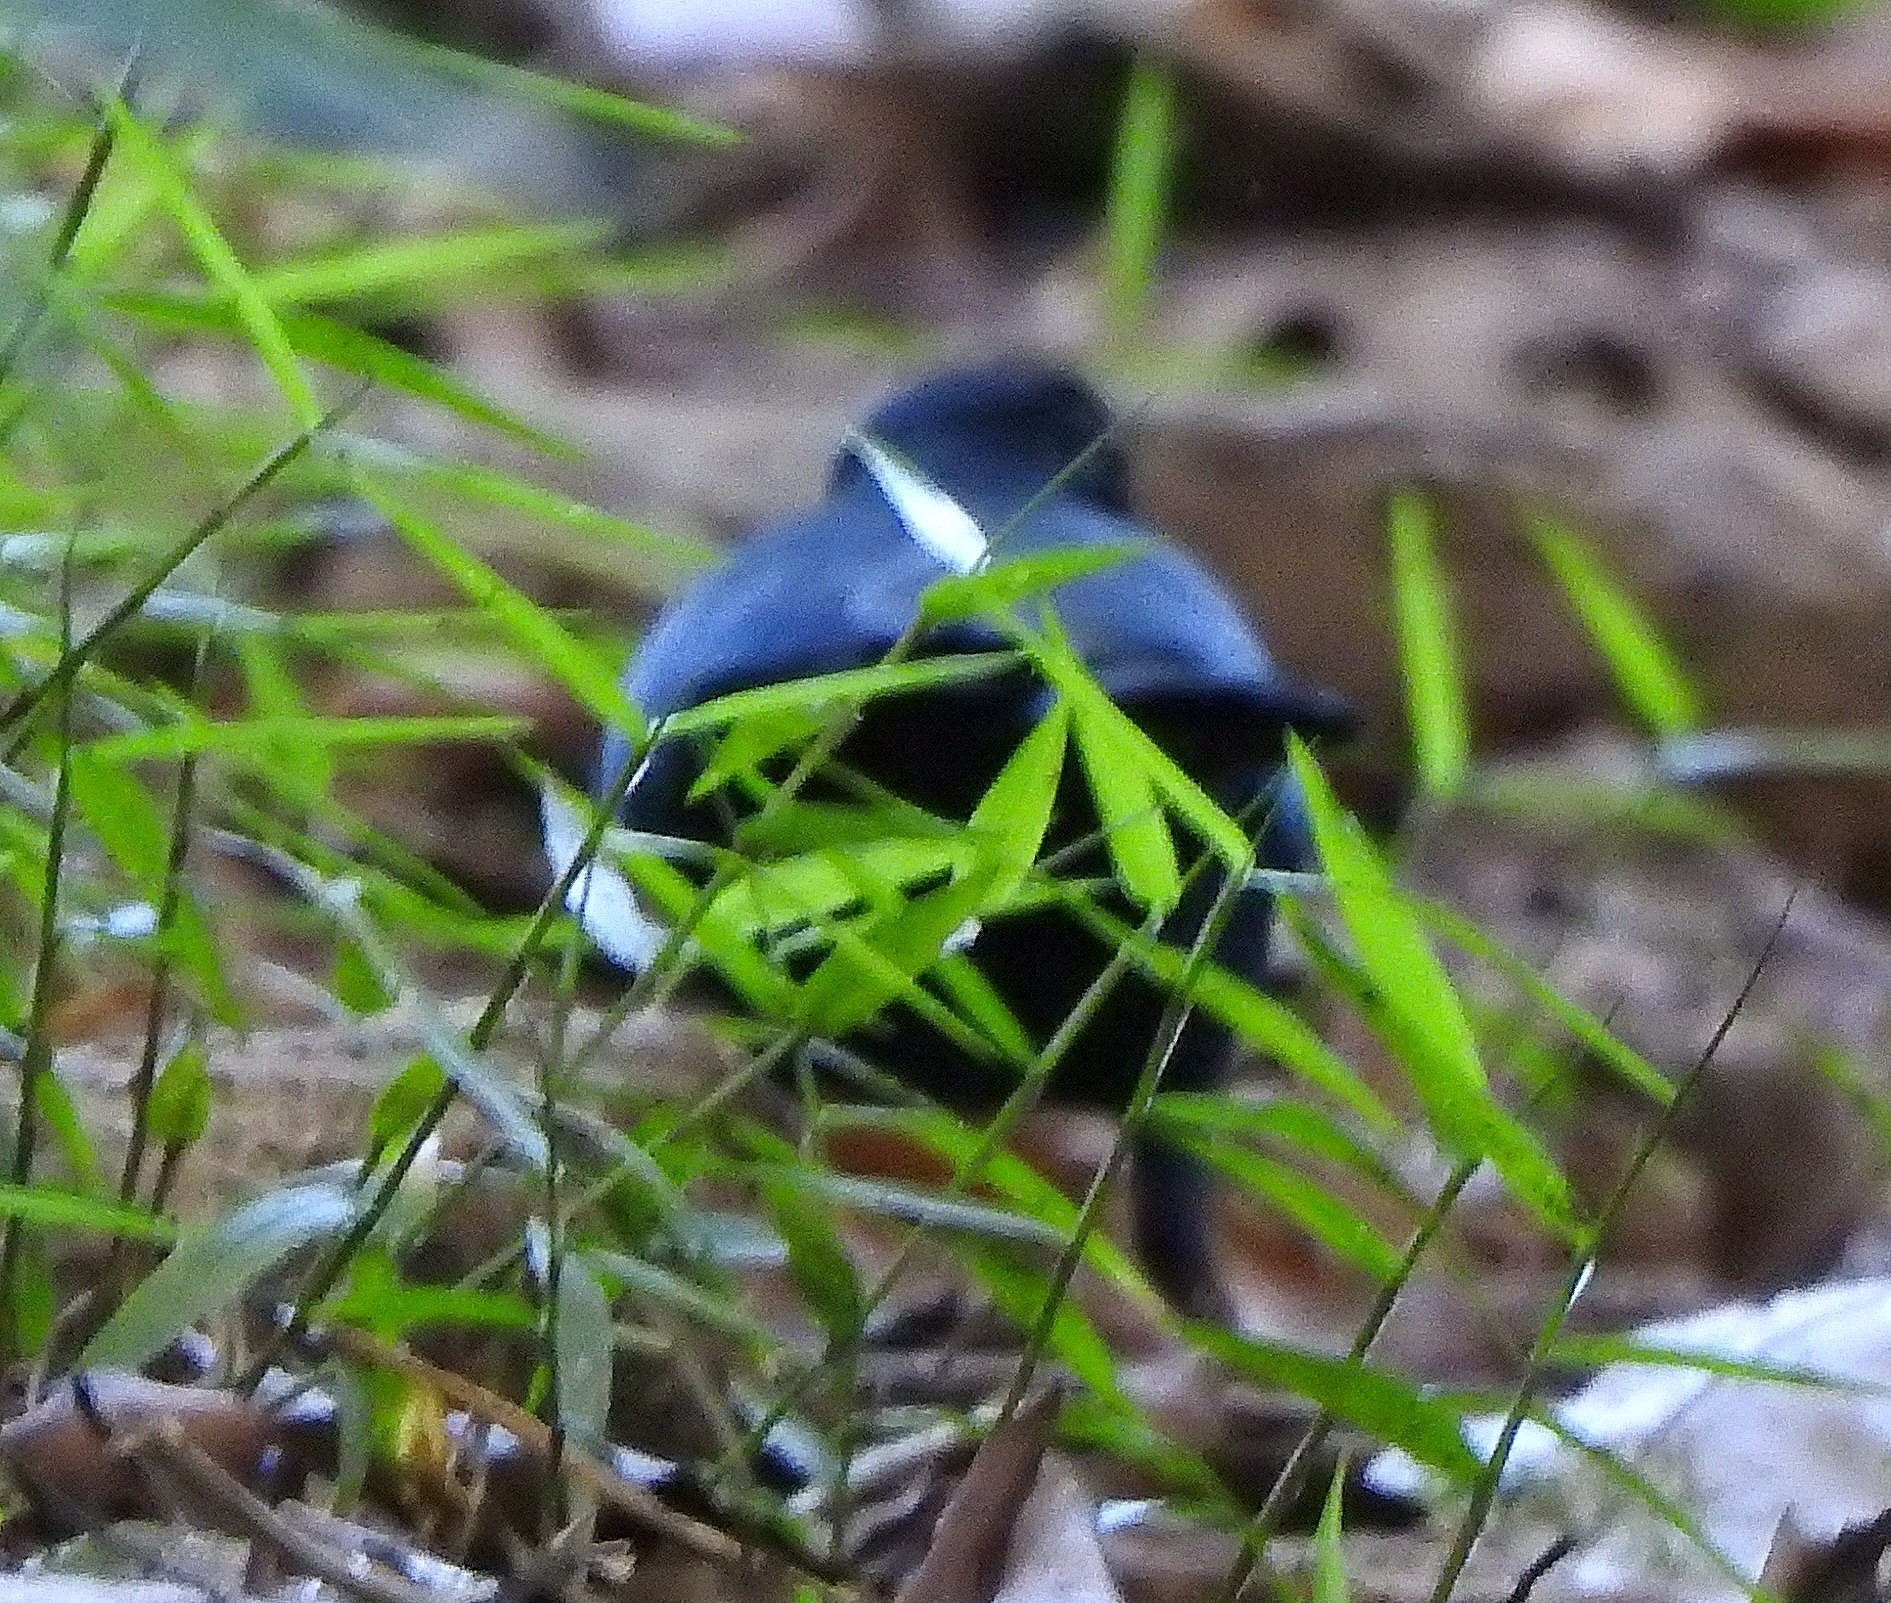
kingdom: Animalia
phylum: Chordata
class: Aves
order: Passeriformes
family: Muscicapidae
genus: Myophonus
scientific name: Myophonus horsfieldii
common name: Malabar whistling-thrush
